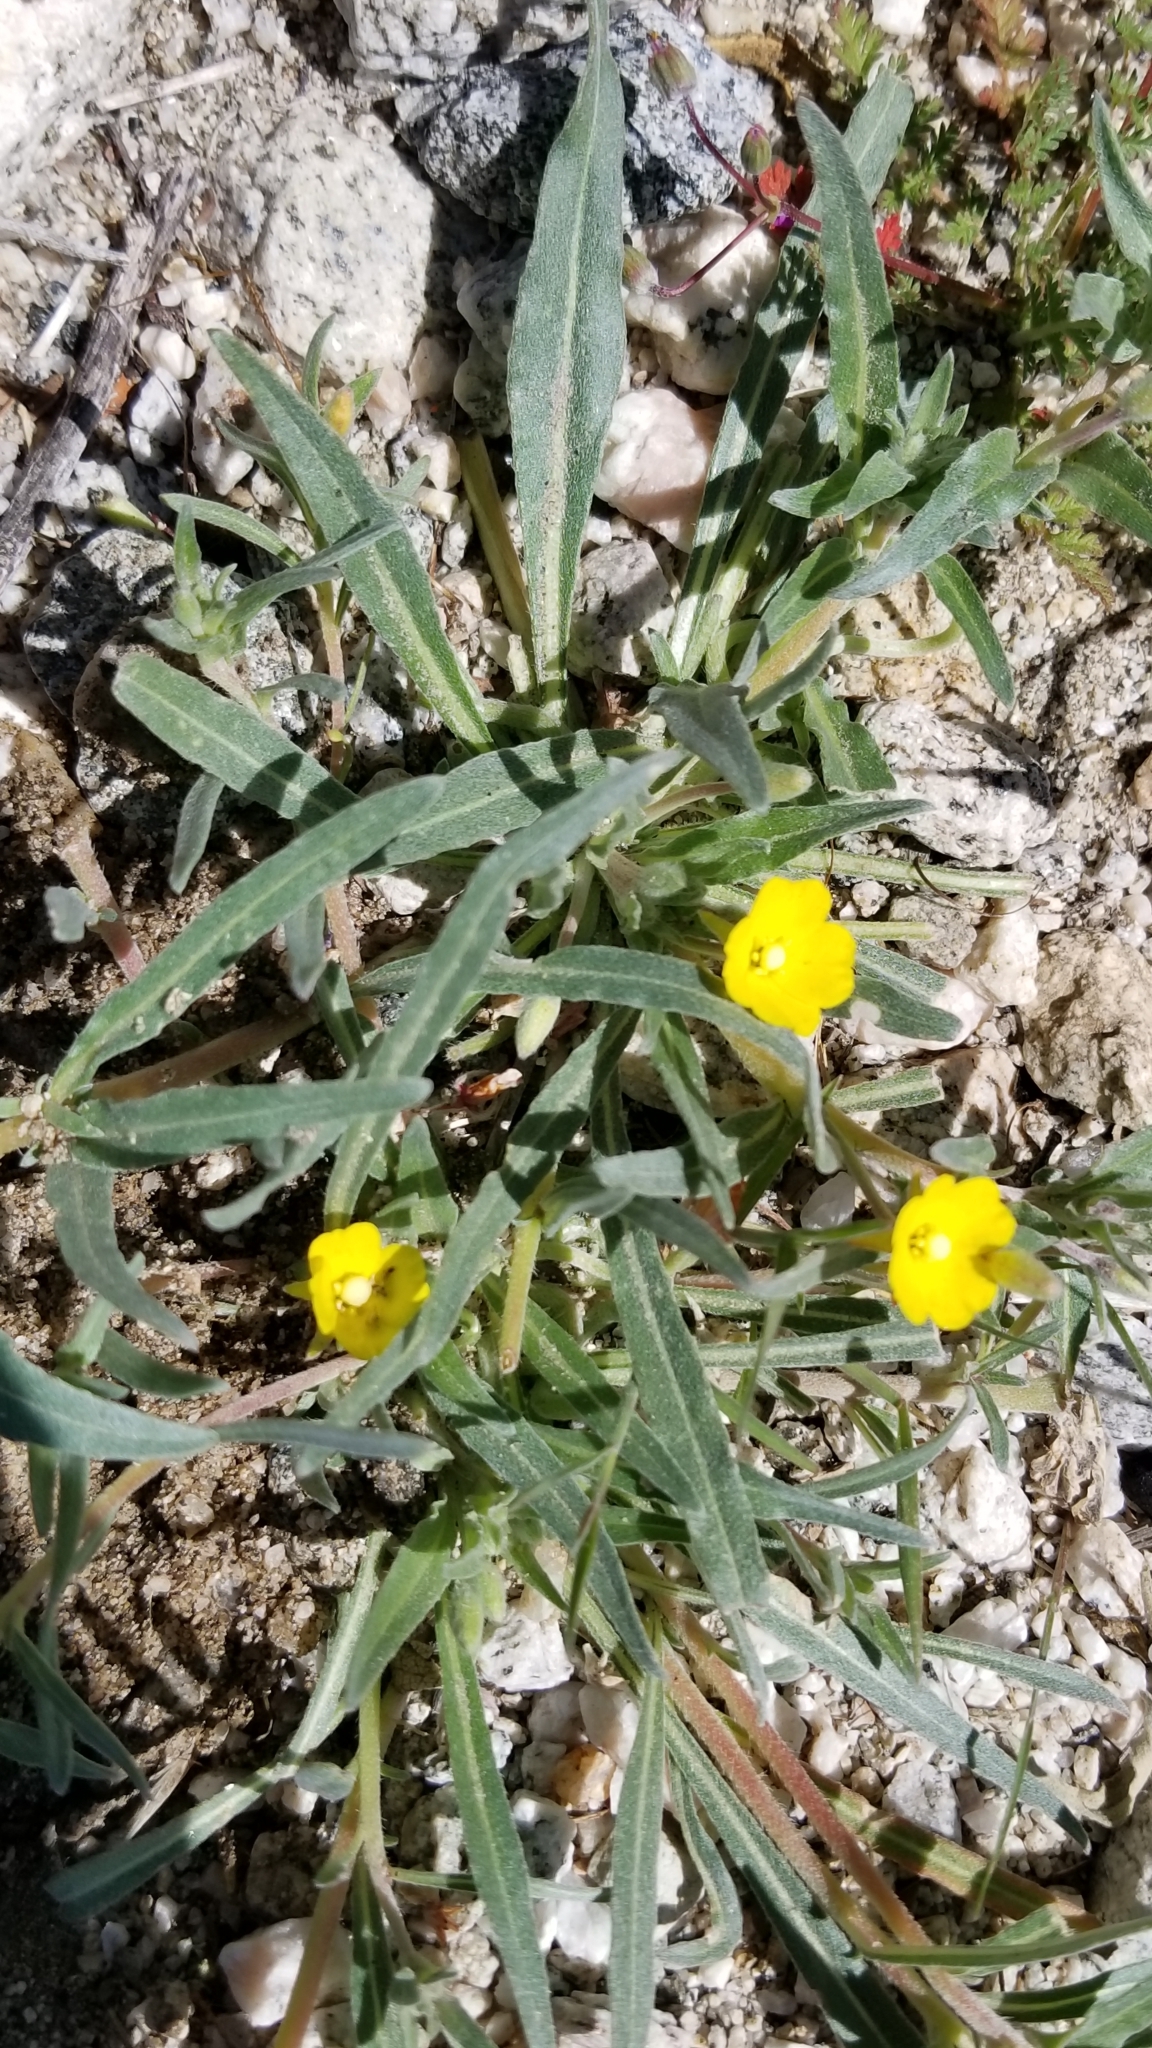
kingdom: Plantae
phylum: Tracheophyta
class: Magnoliopsida
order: Myrtales
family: Onagraceae
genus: Camissoniopsis
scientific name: Camissoniopsis pallida
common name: Paleyellow suncup
